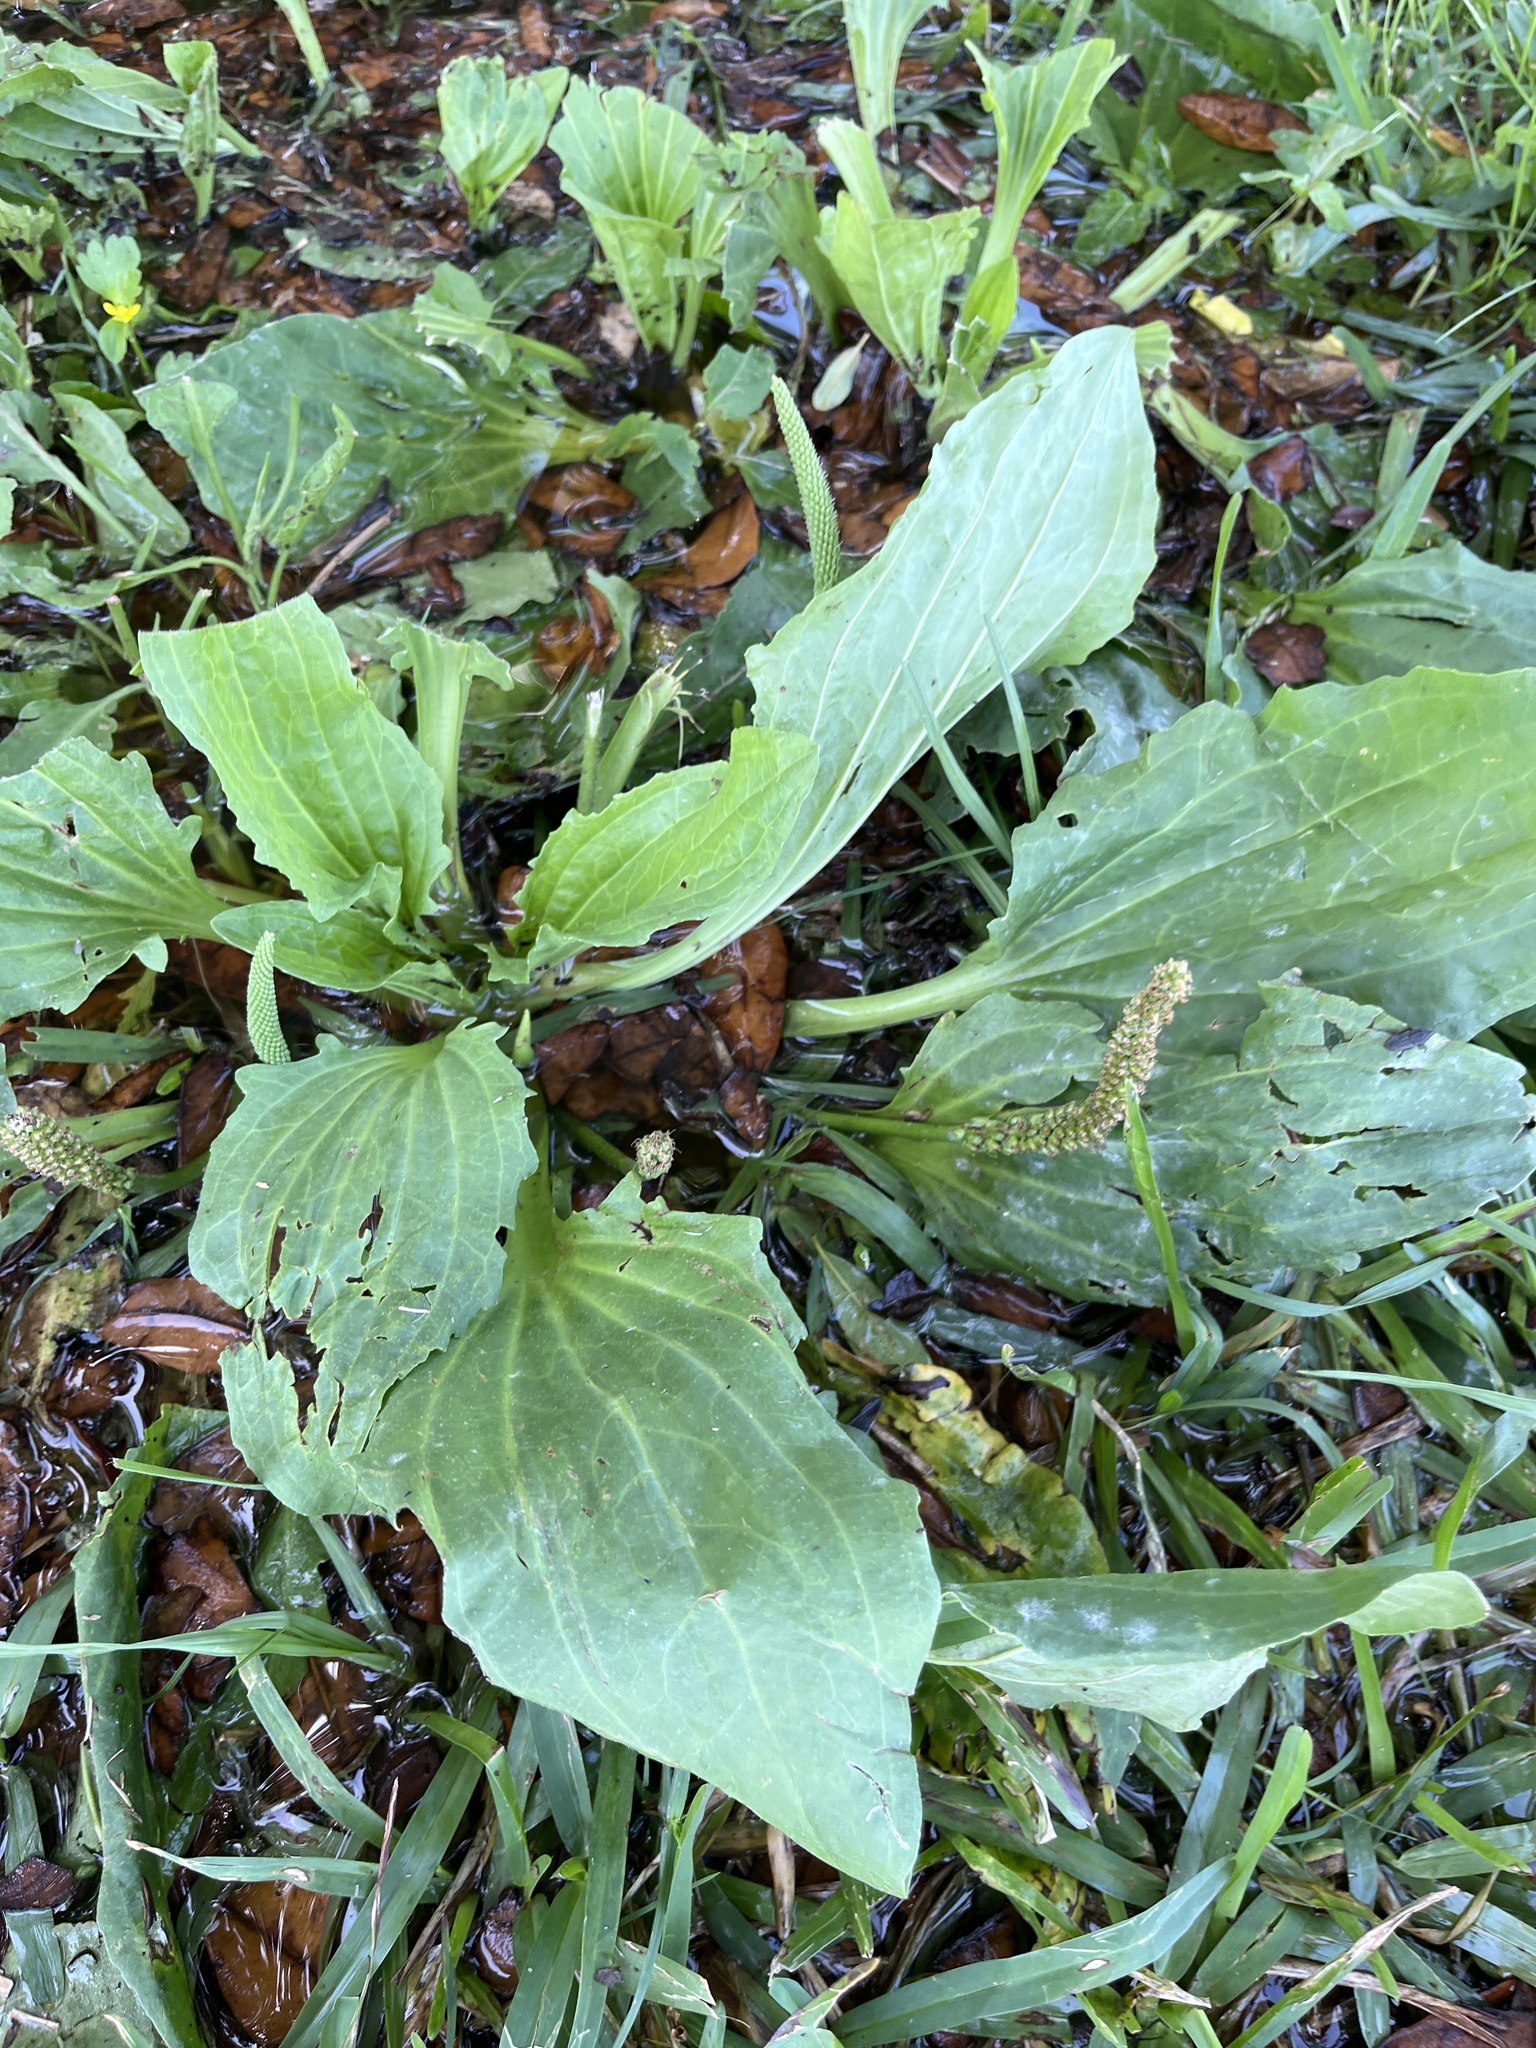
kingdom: Plantae
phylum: Tracheophyta
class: Magnoliopsida
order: Lamiales
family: Plantaginaceae
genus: Plantago
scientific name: Plantago major
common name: Common plantain
